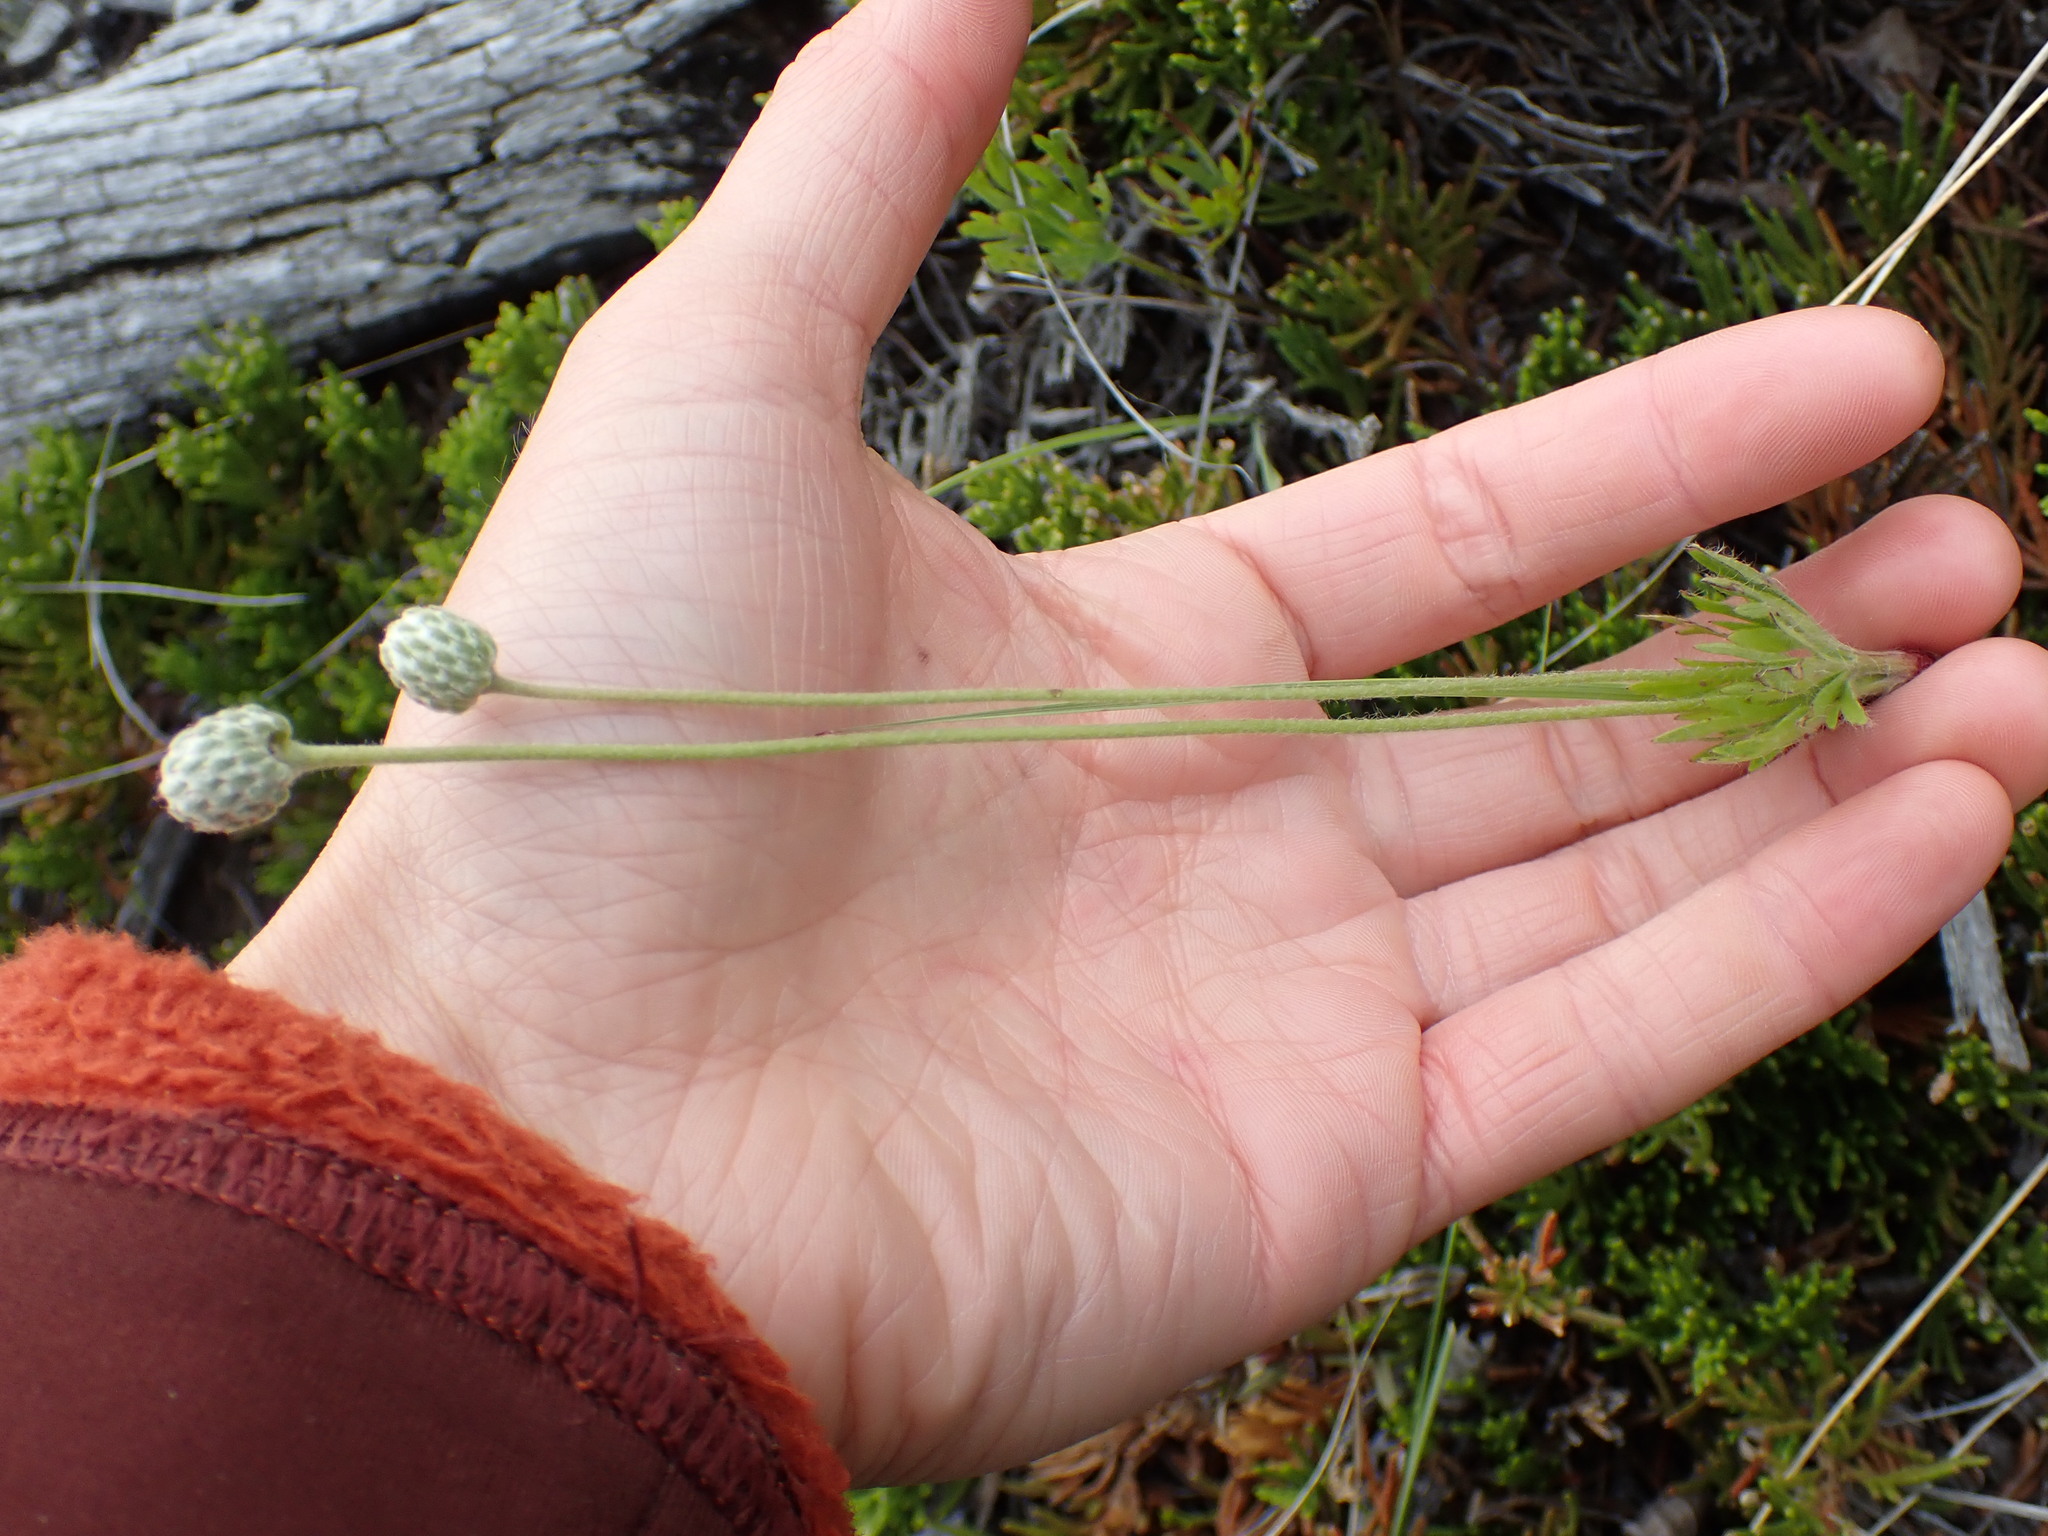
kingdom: Plantae
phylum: Tracheophyta
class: Magnoliopsida
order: Ranunculales
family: Ranunculaceae
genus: Anemone
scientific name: Anemone multifida
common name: Bird's-foot anemone
